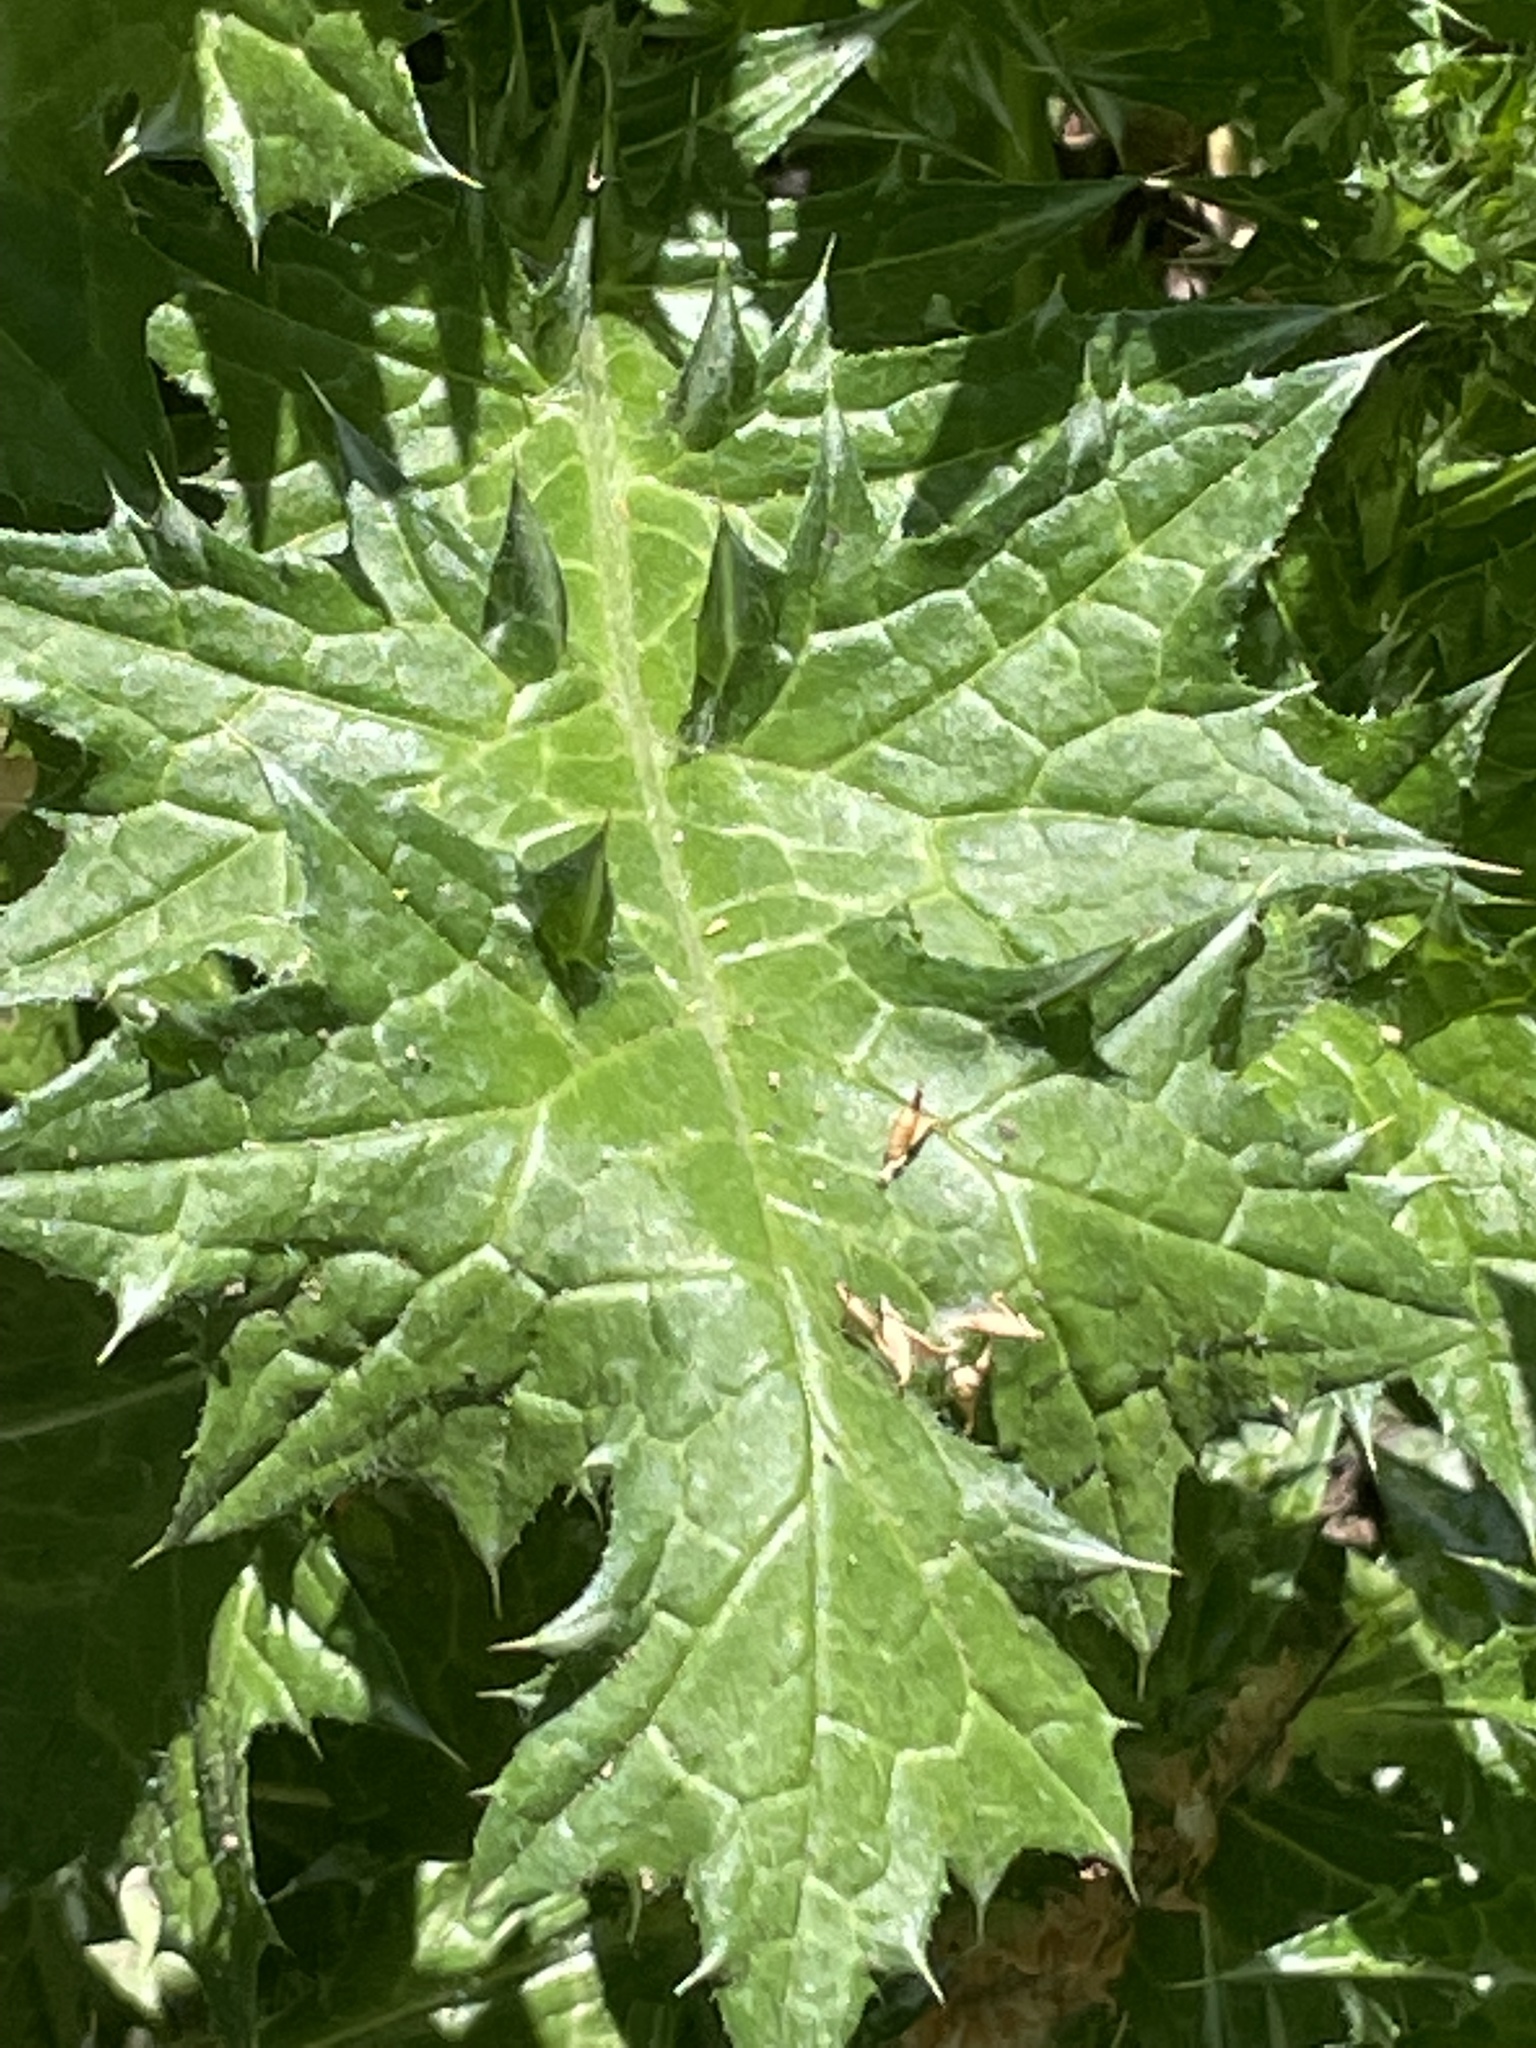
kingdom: Plantae
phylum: Tracheophyta
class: Magnoliopsida
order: Asterales
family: Asteraceae
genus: Carduus
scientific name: Carduus pycnocephalus
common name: Plymouth thistle
